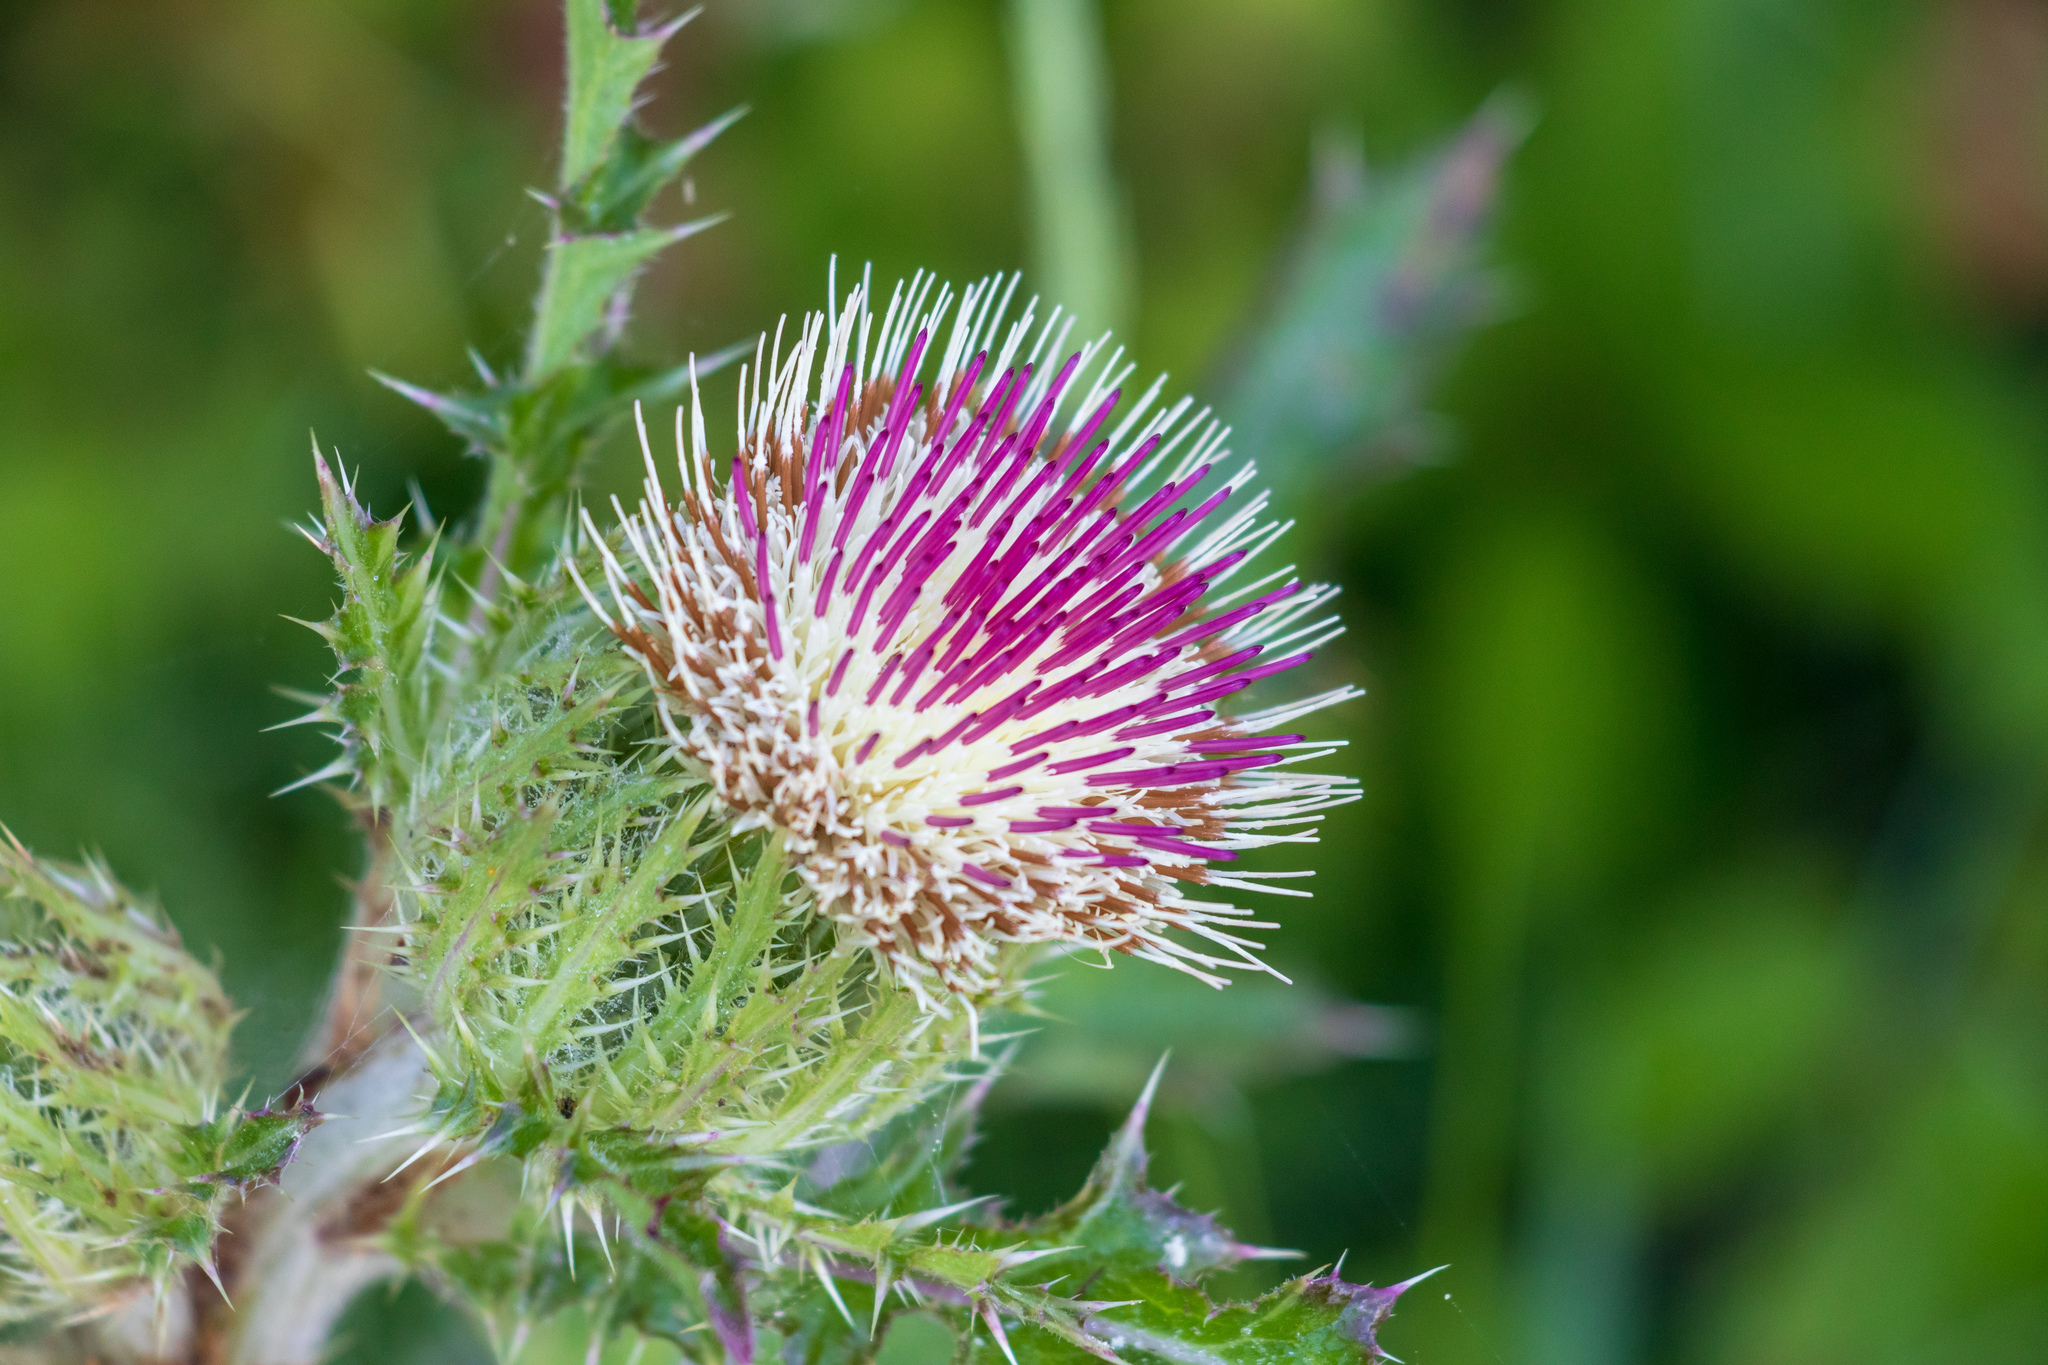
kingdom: Plantae
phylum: Tracheophyta
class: Magnoliopsida
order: Asterales
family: Asteraceae
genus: Cirsium
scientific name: Cirsium horridulum
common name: Bristly thistle
